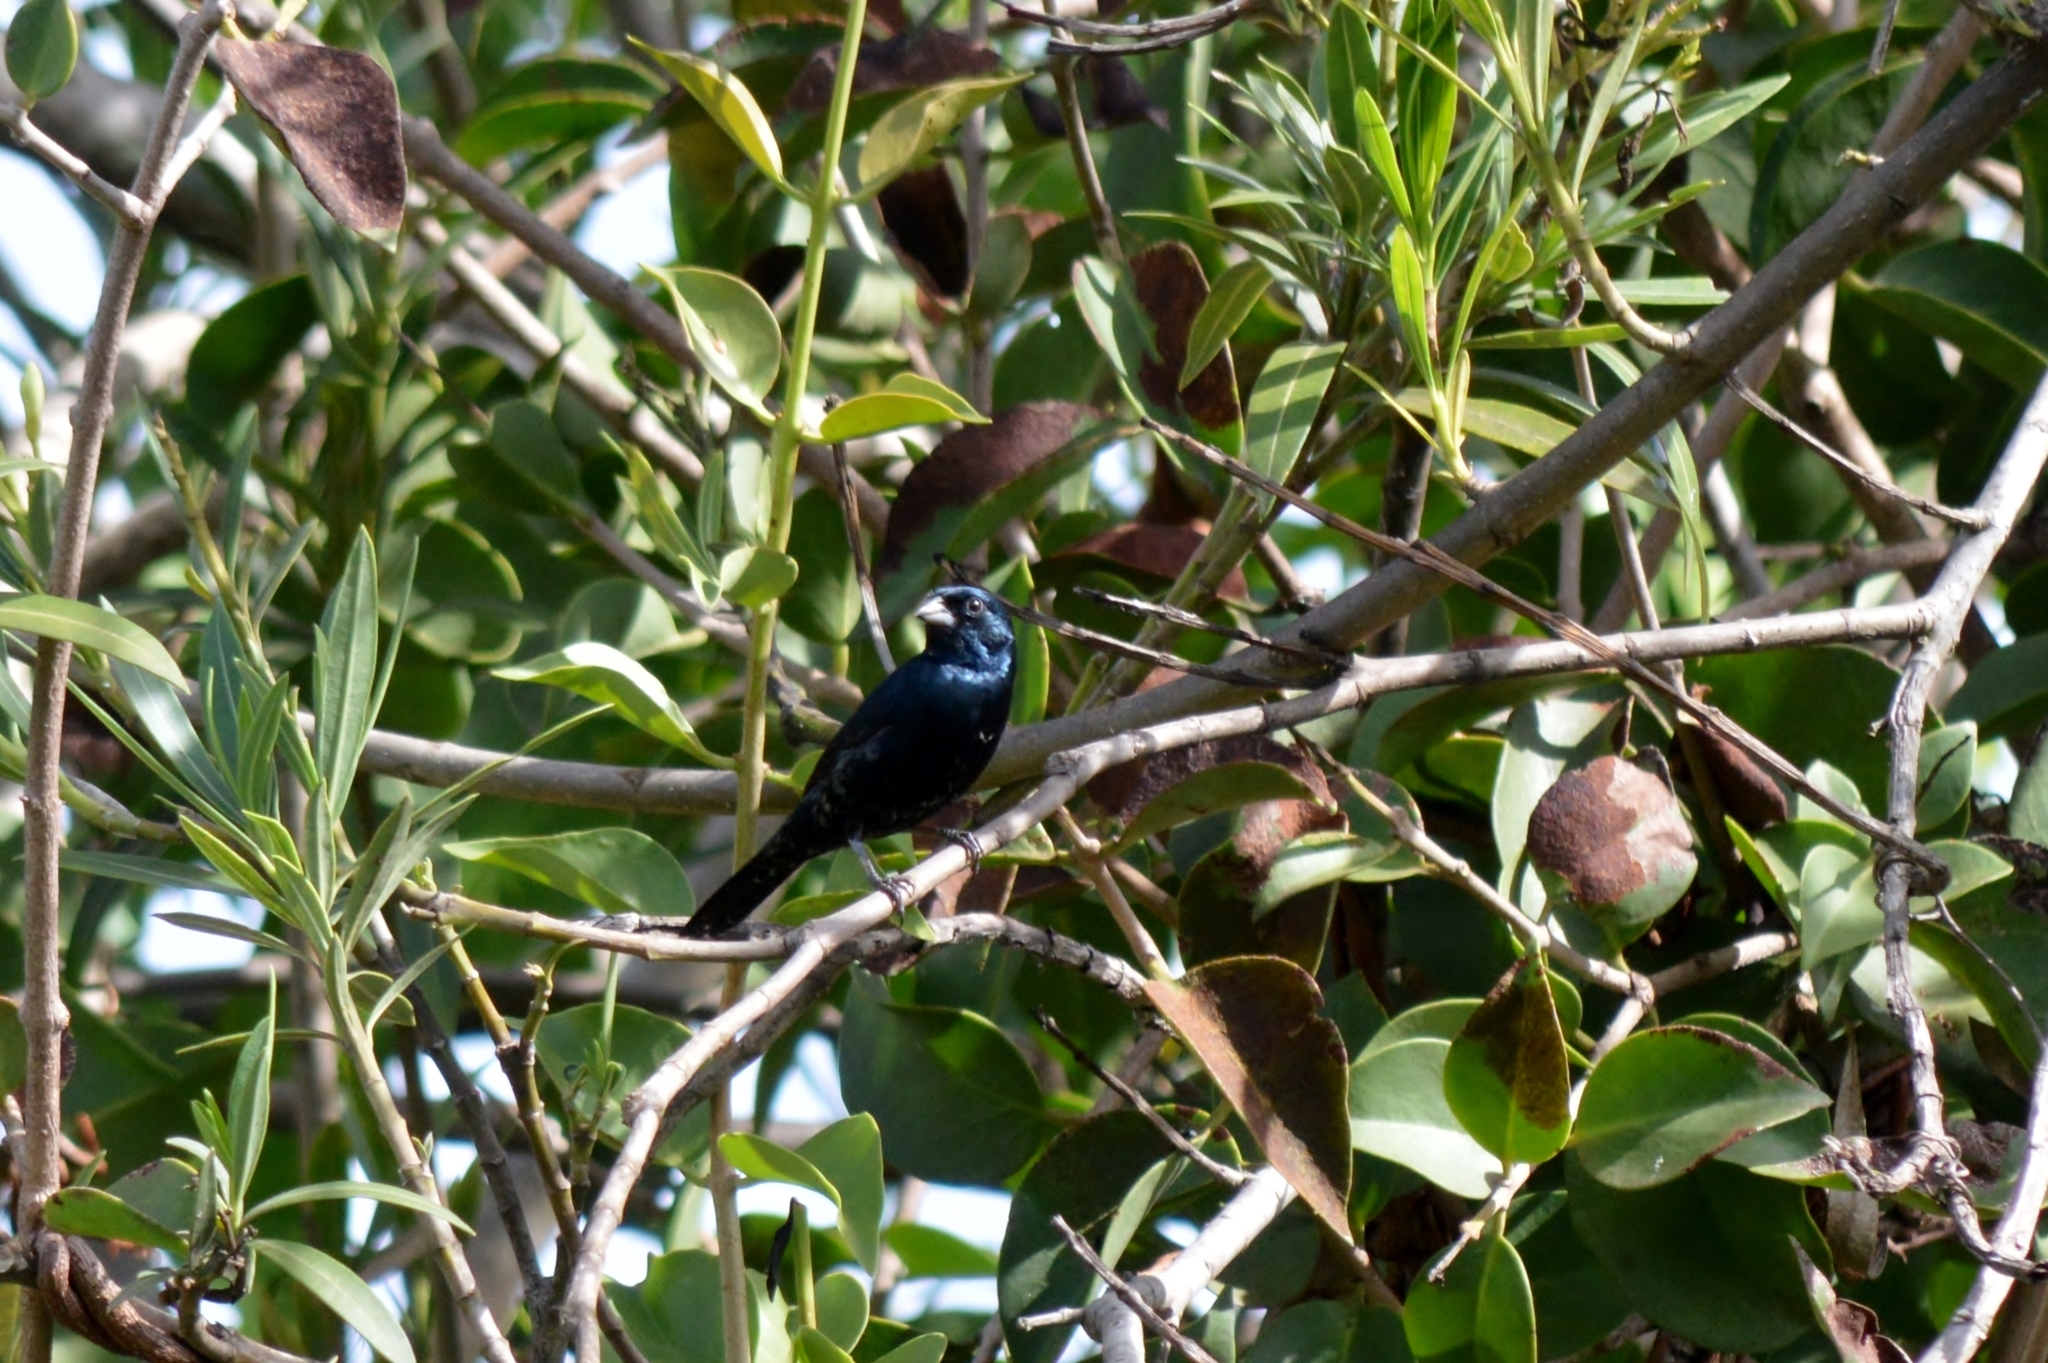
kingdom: Animalia
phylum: Chordata
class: Aves
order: Passeriformes
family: Thraupidae
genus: Volatinia
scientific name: Volatinia jacarina
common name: Blue-black grassquit
